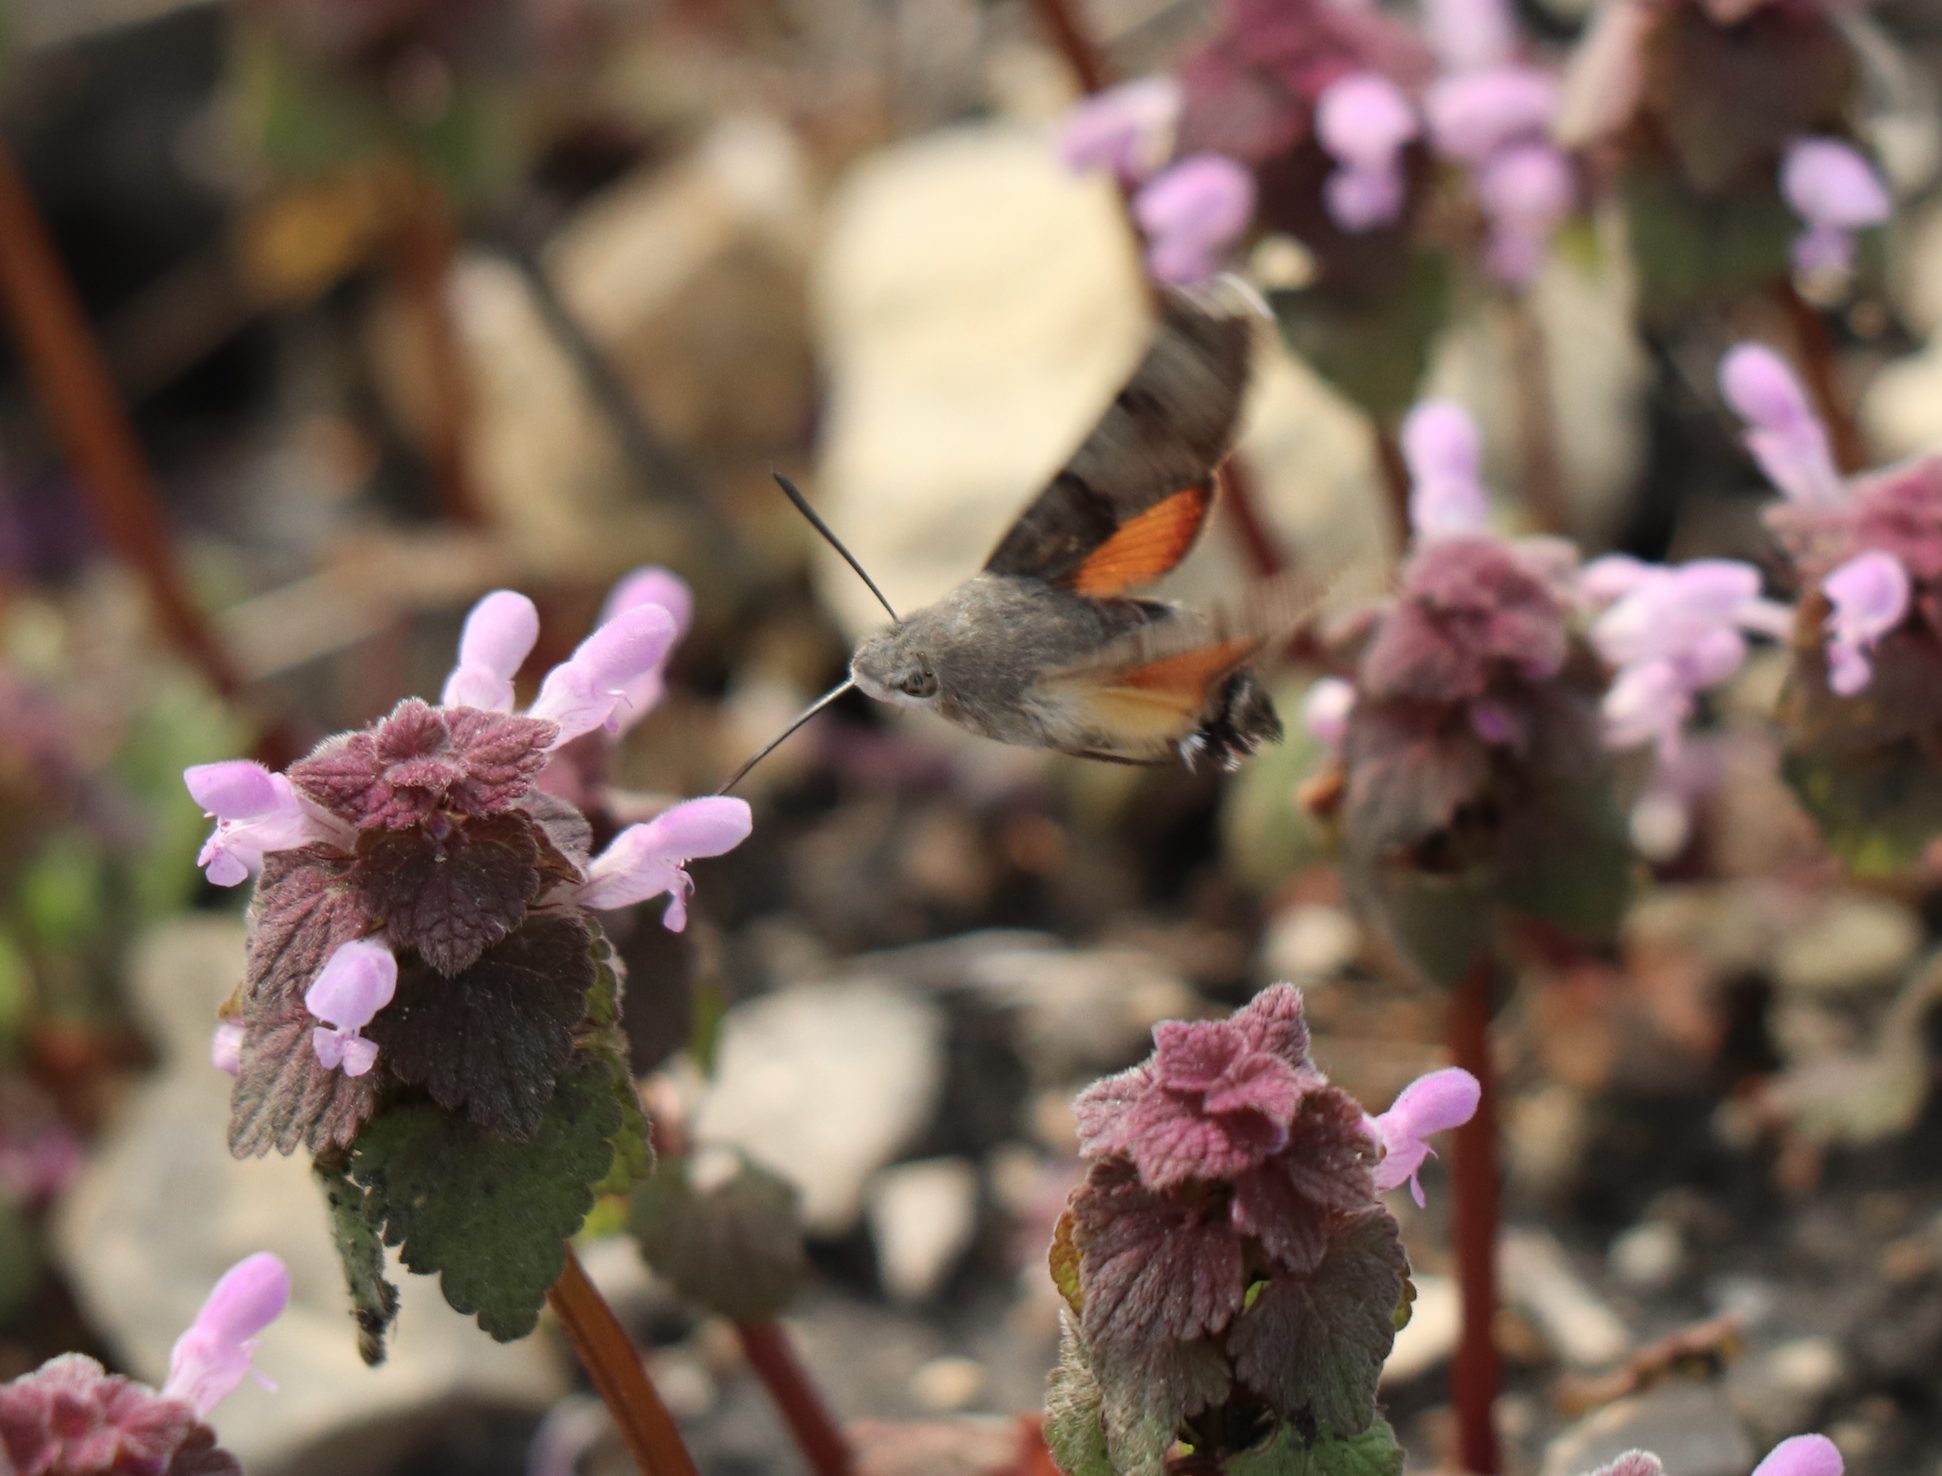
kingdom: Animalia
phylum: Arthropoda
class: Insecta
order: Lepidoptera
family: Sphingidae
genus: Macroglossum
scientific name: Macroglossum stellatarum
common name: Humming-bird hawk-moth
